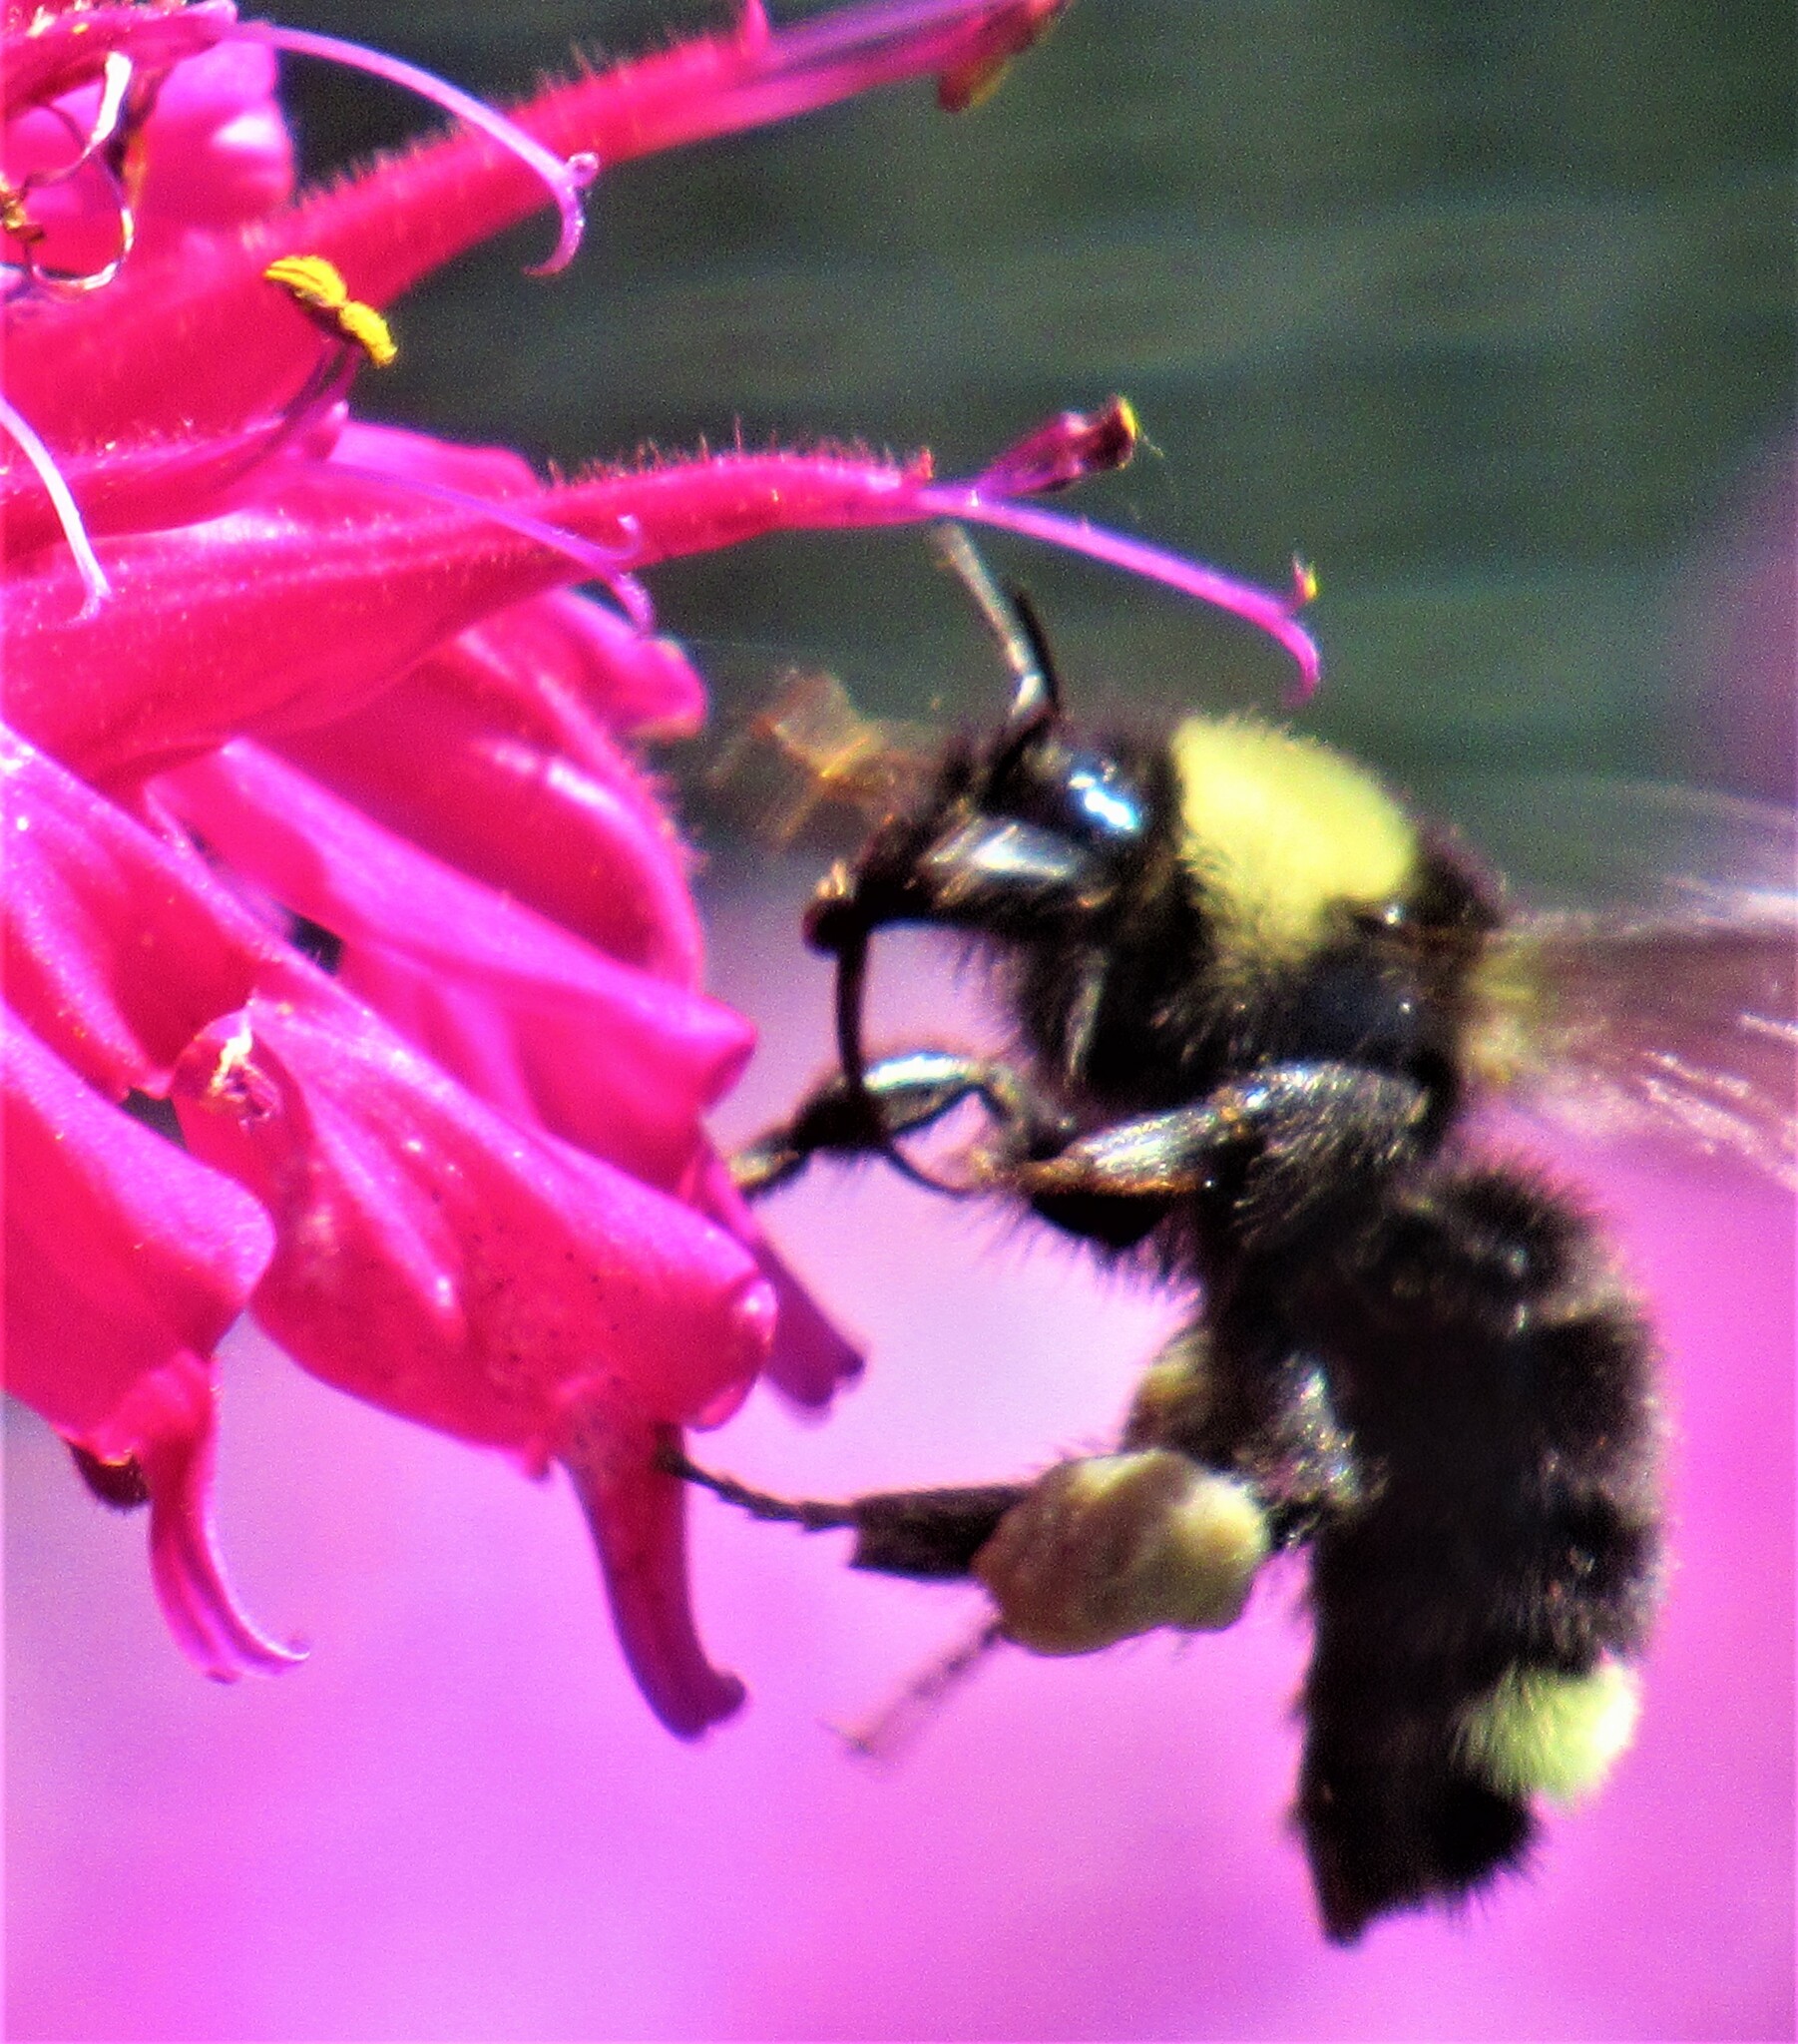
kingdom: Animalia
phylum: Arthropoda
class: Insecta
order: Hymenoptera
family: Apidae
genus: Bombus
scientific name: Bombus californicus
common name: California bumble bee
